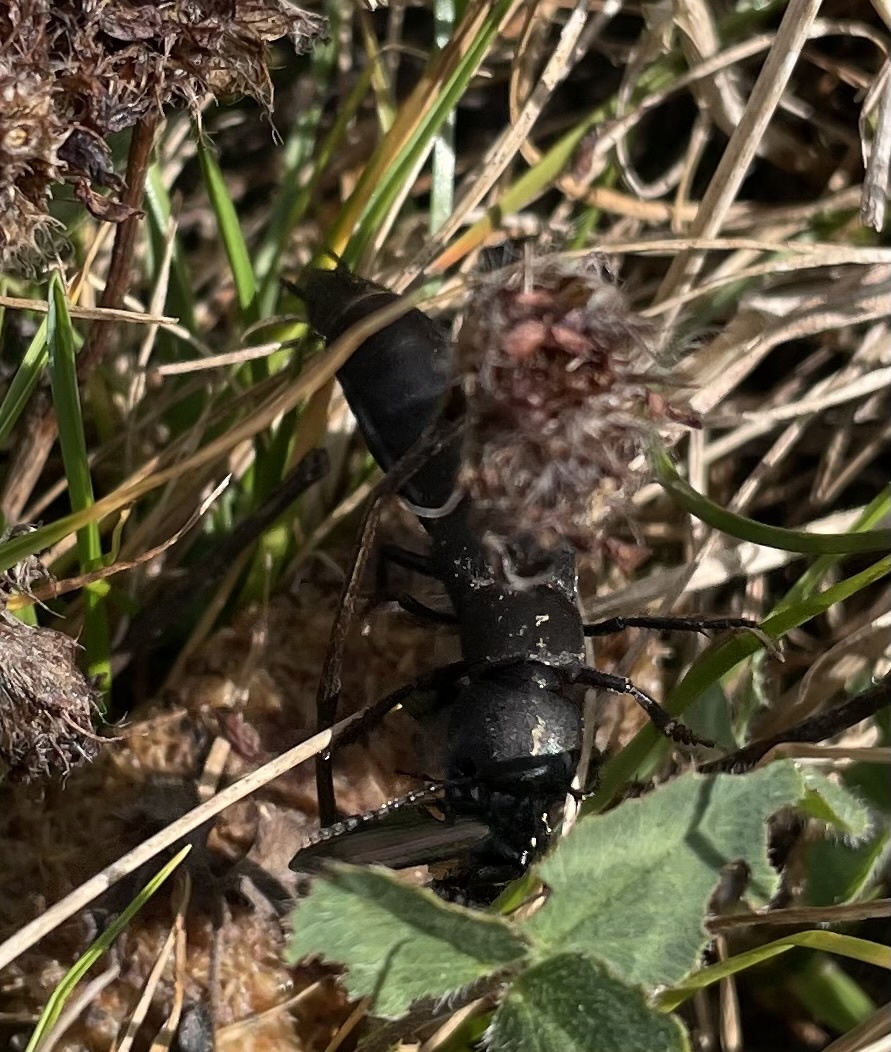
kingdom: Animalia
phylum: Arthropoda
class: Insecta
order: Coleoptera
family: Staphylinidae
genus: Ocypus
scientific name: Ocypus olens
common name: Devil's coach-horse
